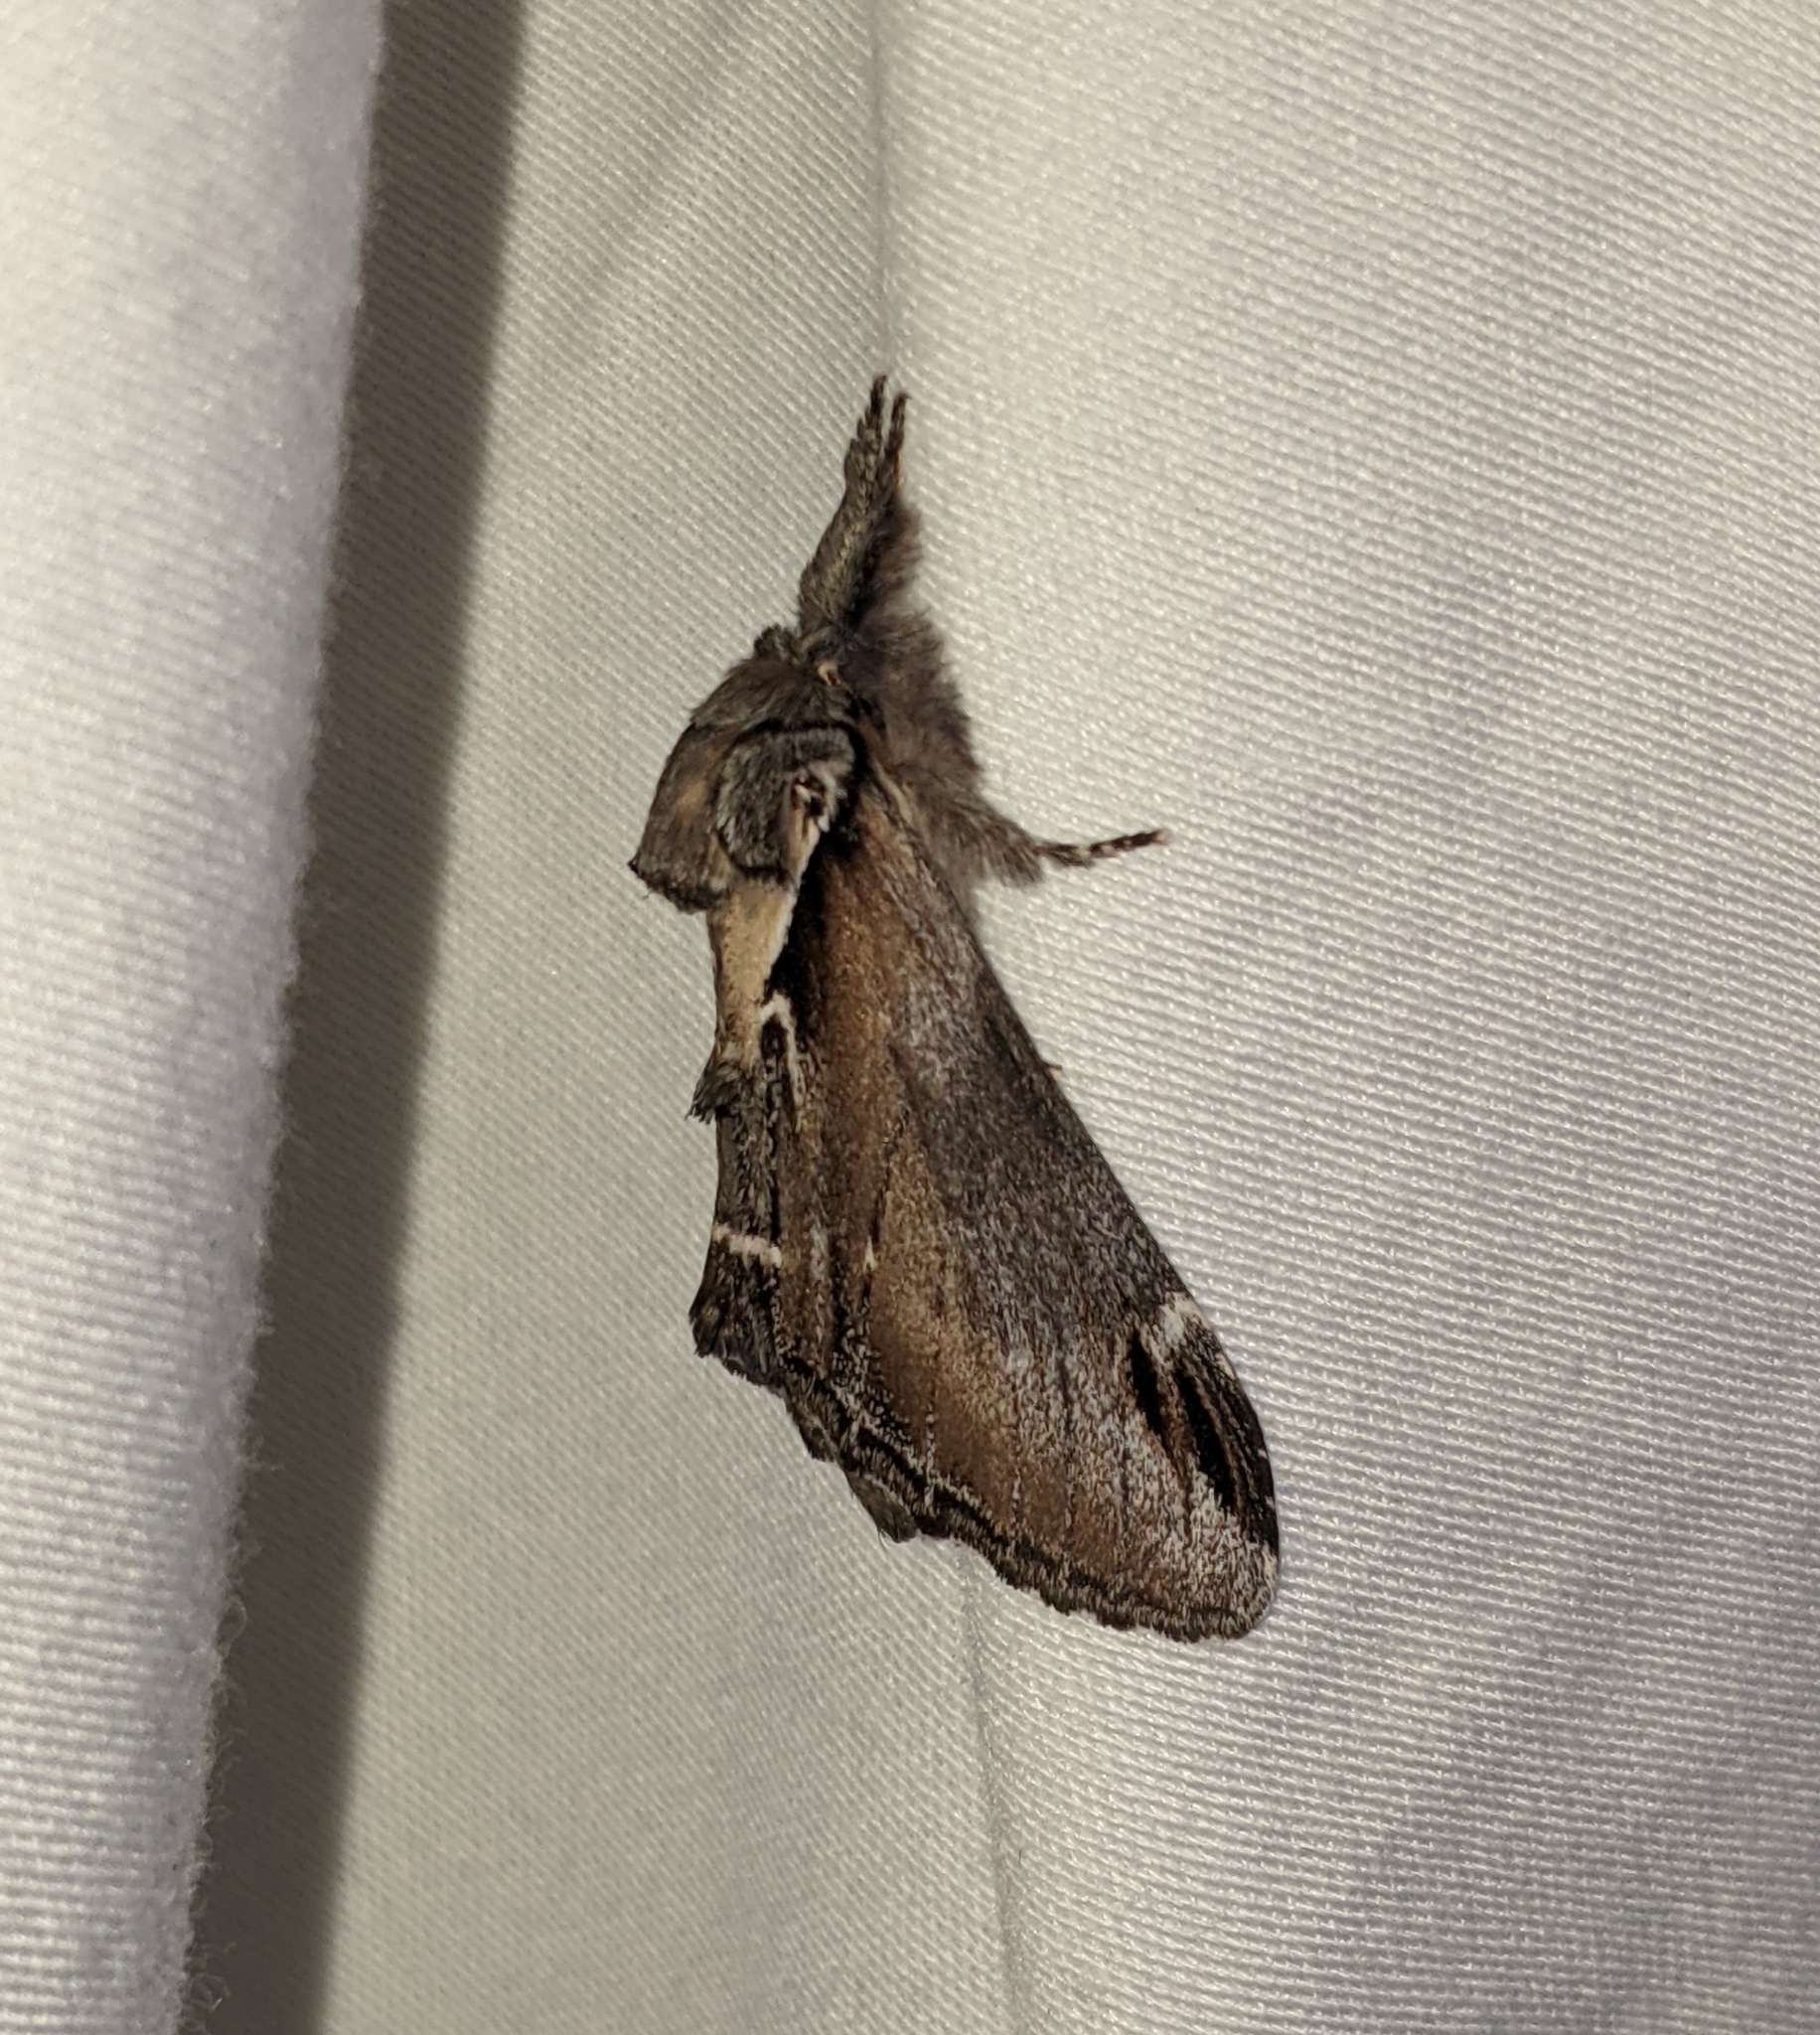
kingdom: Animalia
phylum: Arthropoda
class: Insecta
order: Lepidoptera
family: Notodontidae
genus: Pheosia
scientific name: Pheosia rimosa
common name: Black-rimmed prominent
